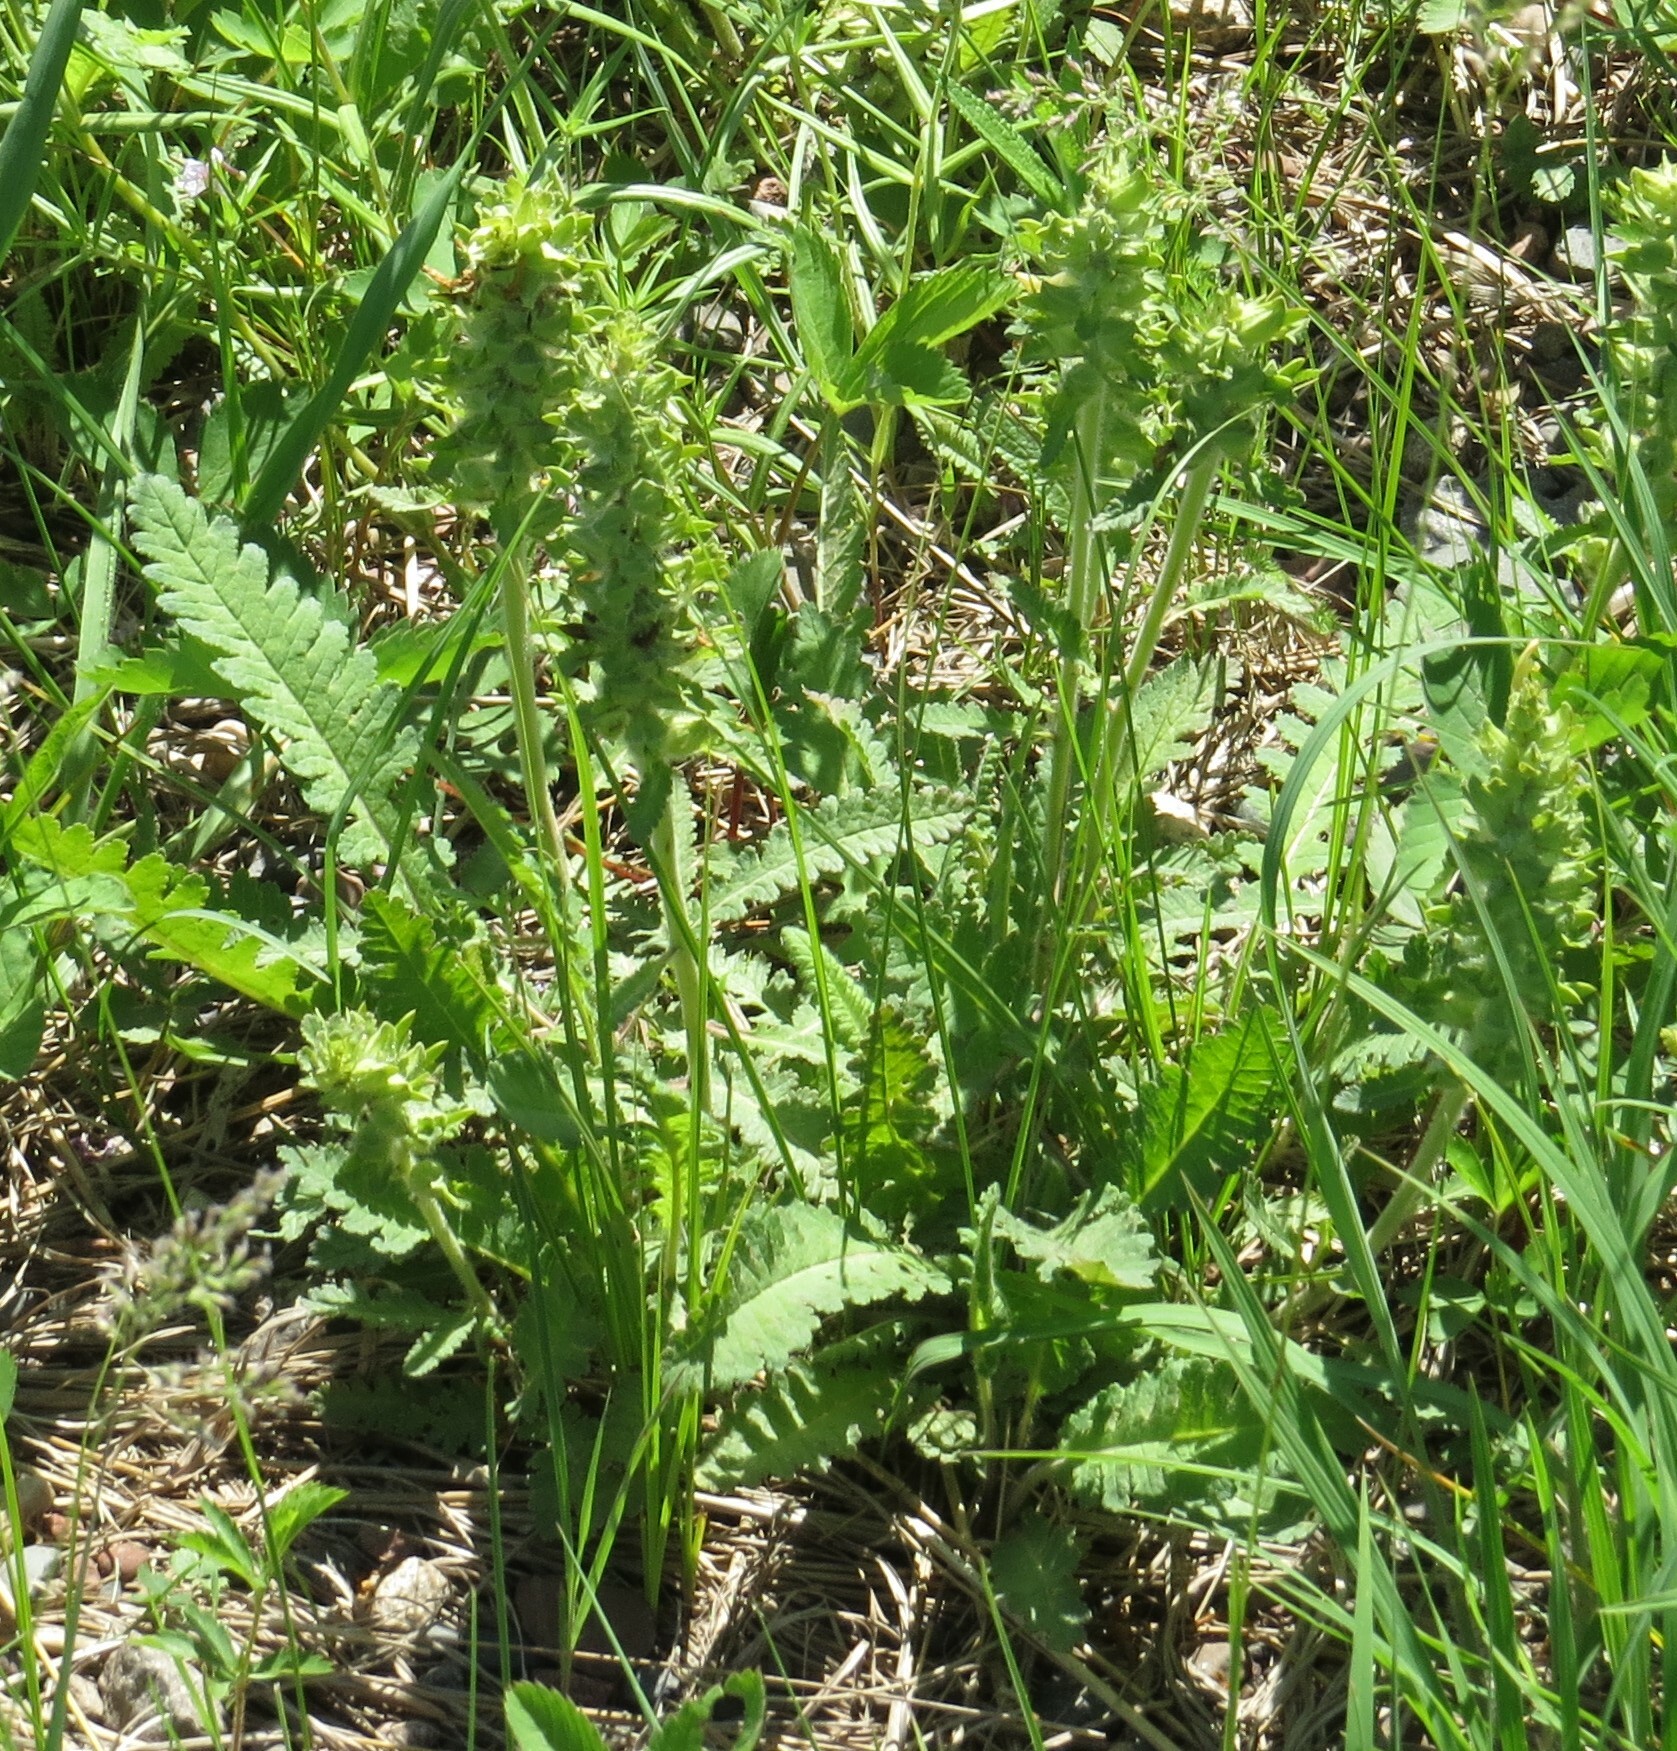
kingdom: Plantae
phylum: Tracheophyta
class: Magnoliopsida
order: Lamiales
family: Orobanchaceae
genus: Pedicularis
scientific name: Pedicularis canadensis
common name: Early lousewort
